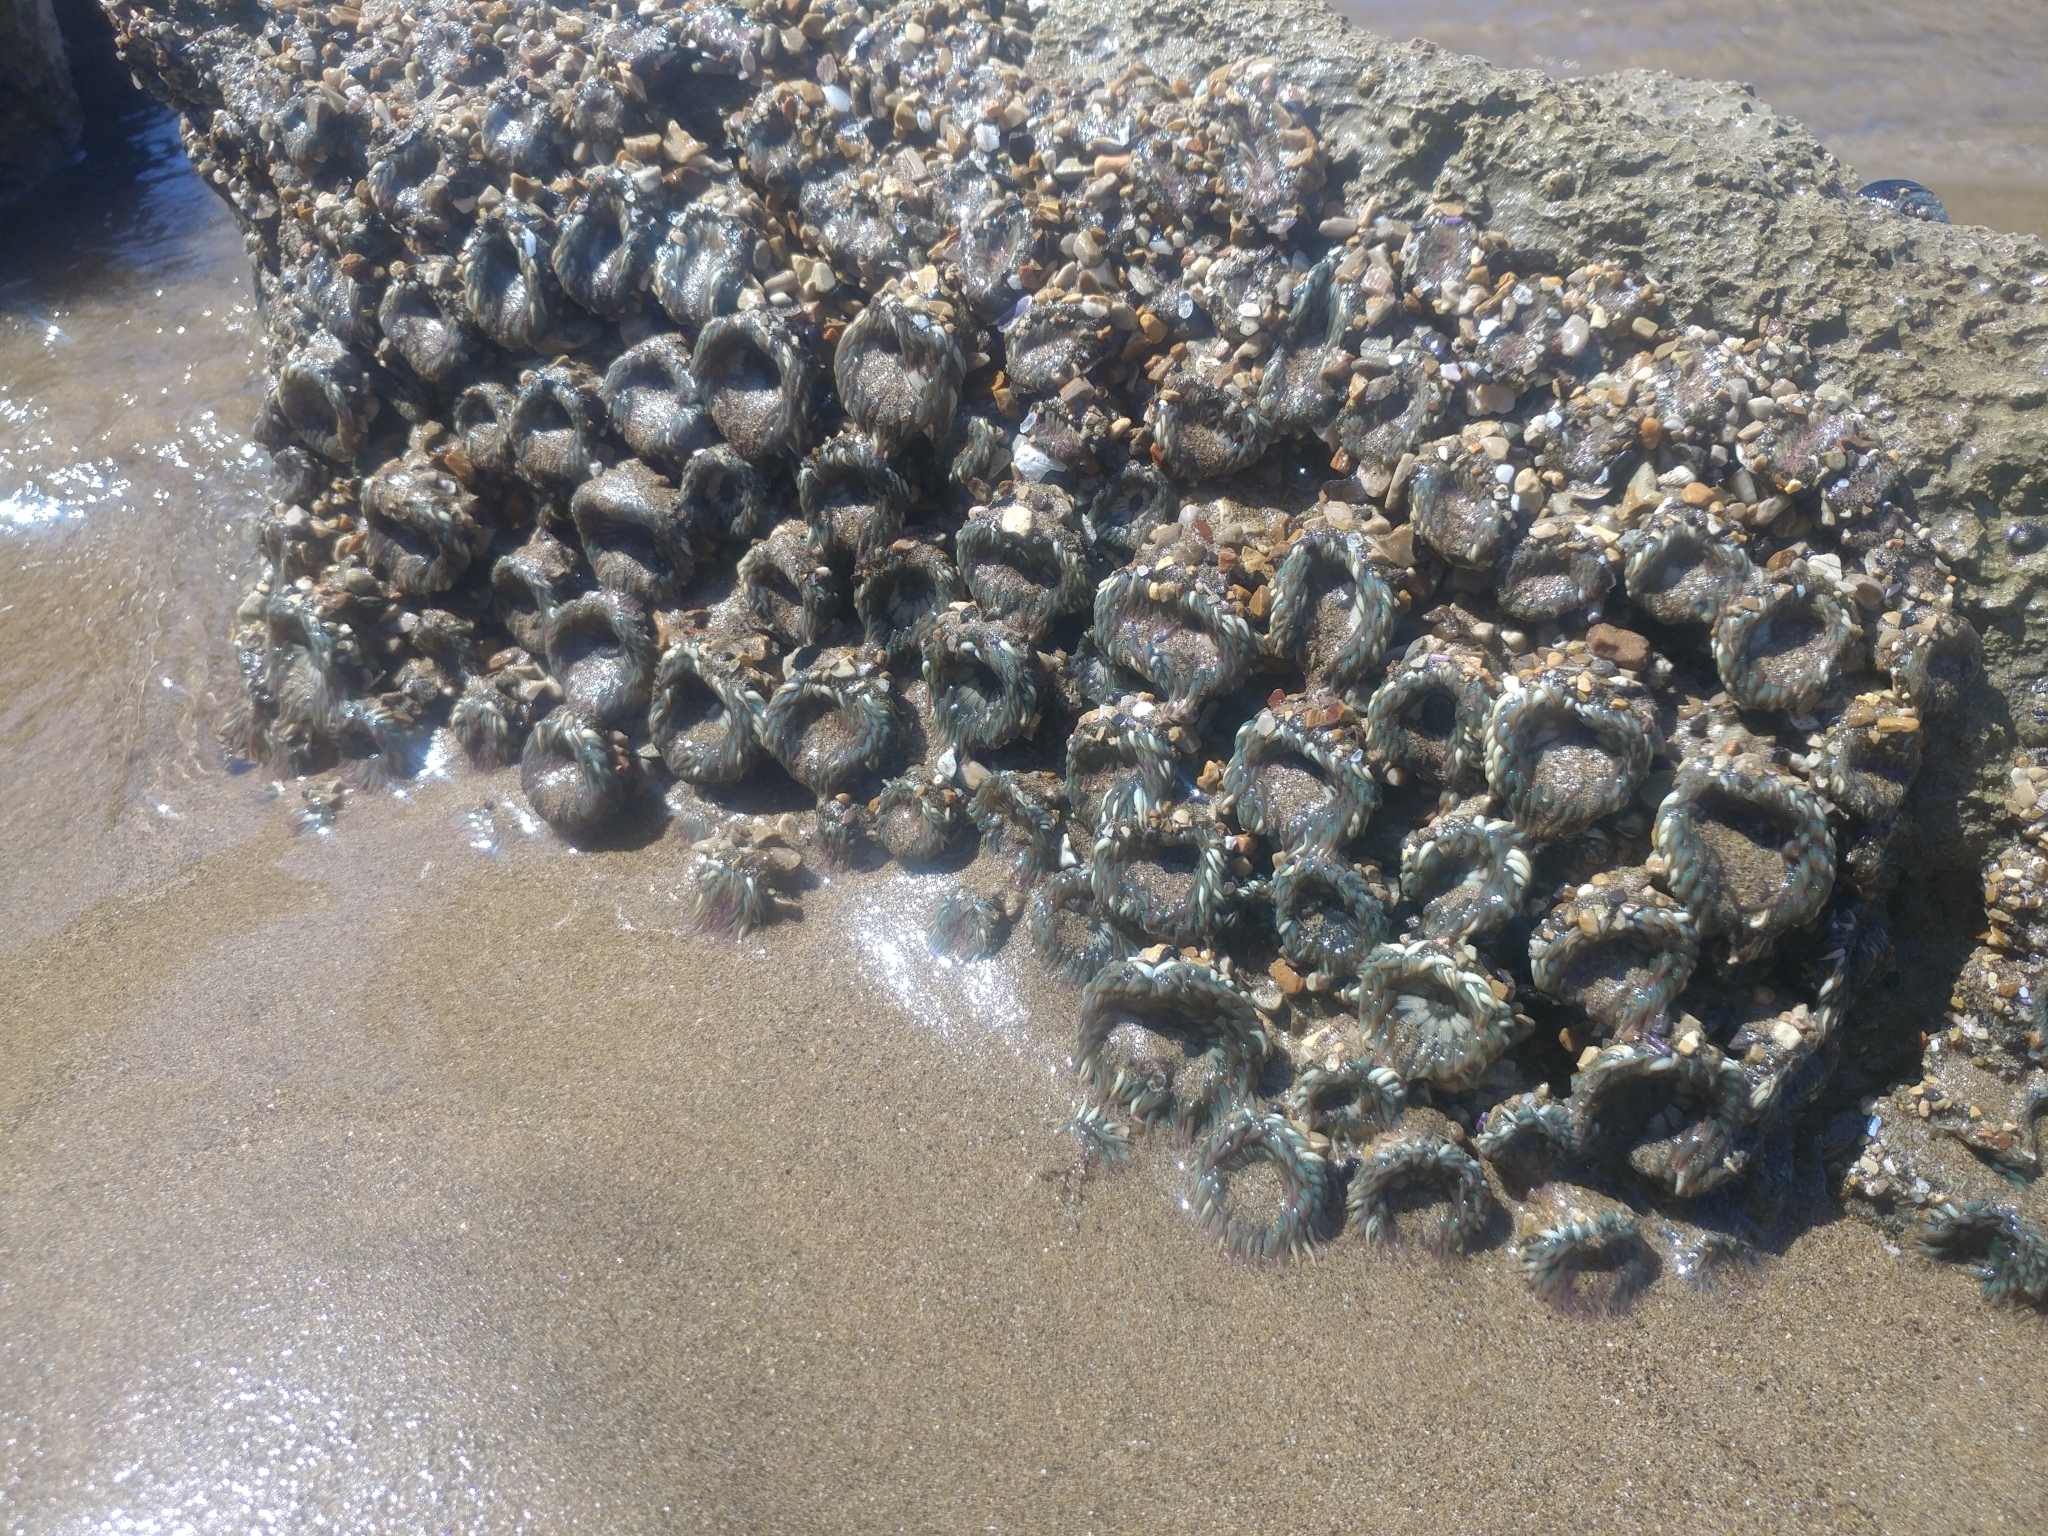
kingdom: Animalia
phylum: Cnidaria
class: Anthozoa
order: Actiniaria
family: Actiniidae
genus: Anthopleura
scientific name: Anthopleura elegantissima
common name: Clonal anemone
